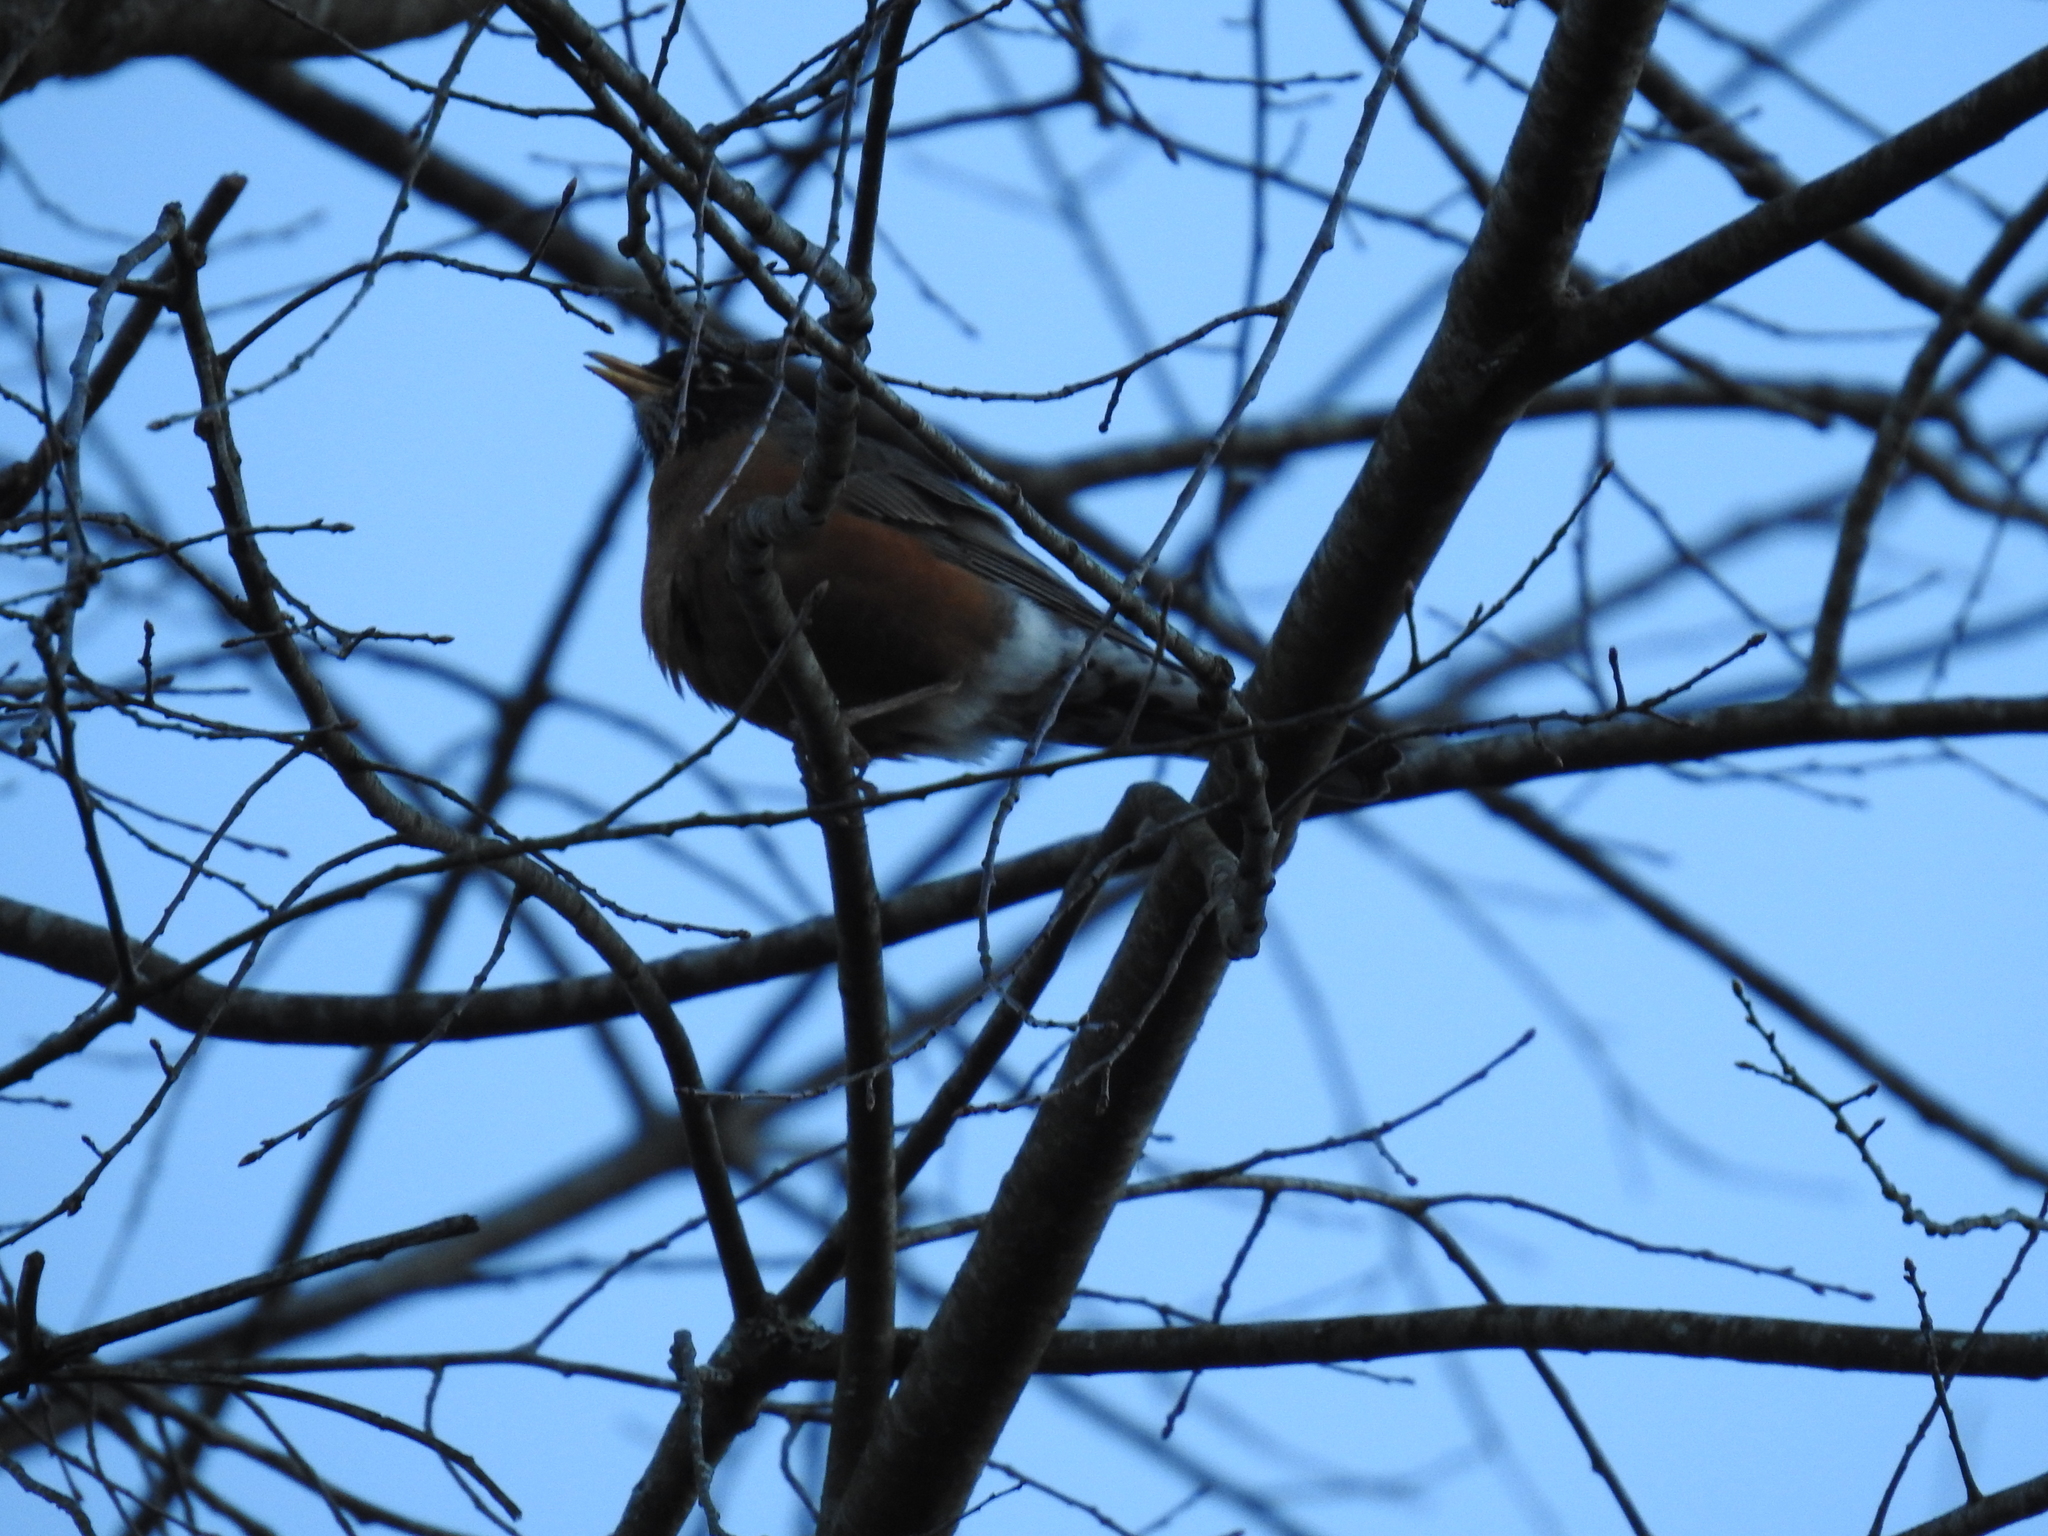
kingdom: Animalia
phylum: Chordata
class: Aves
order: Passeriformes
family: Turdidae
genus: Turdus
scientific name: Turdus migratorius
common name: American robin
